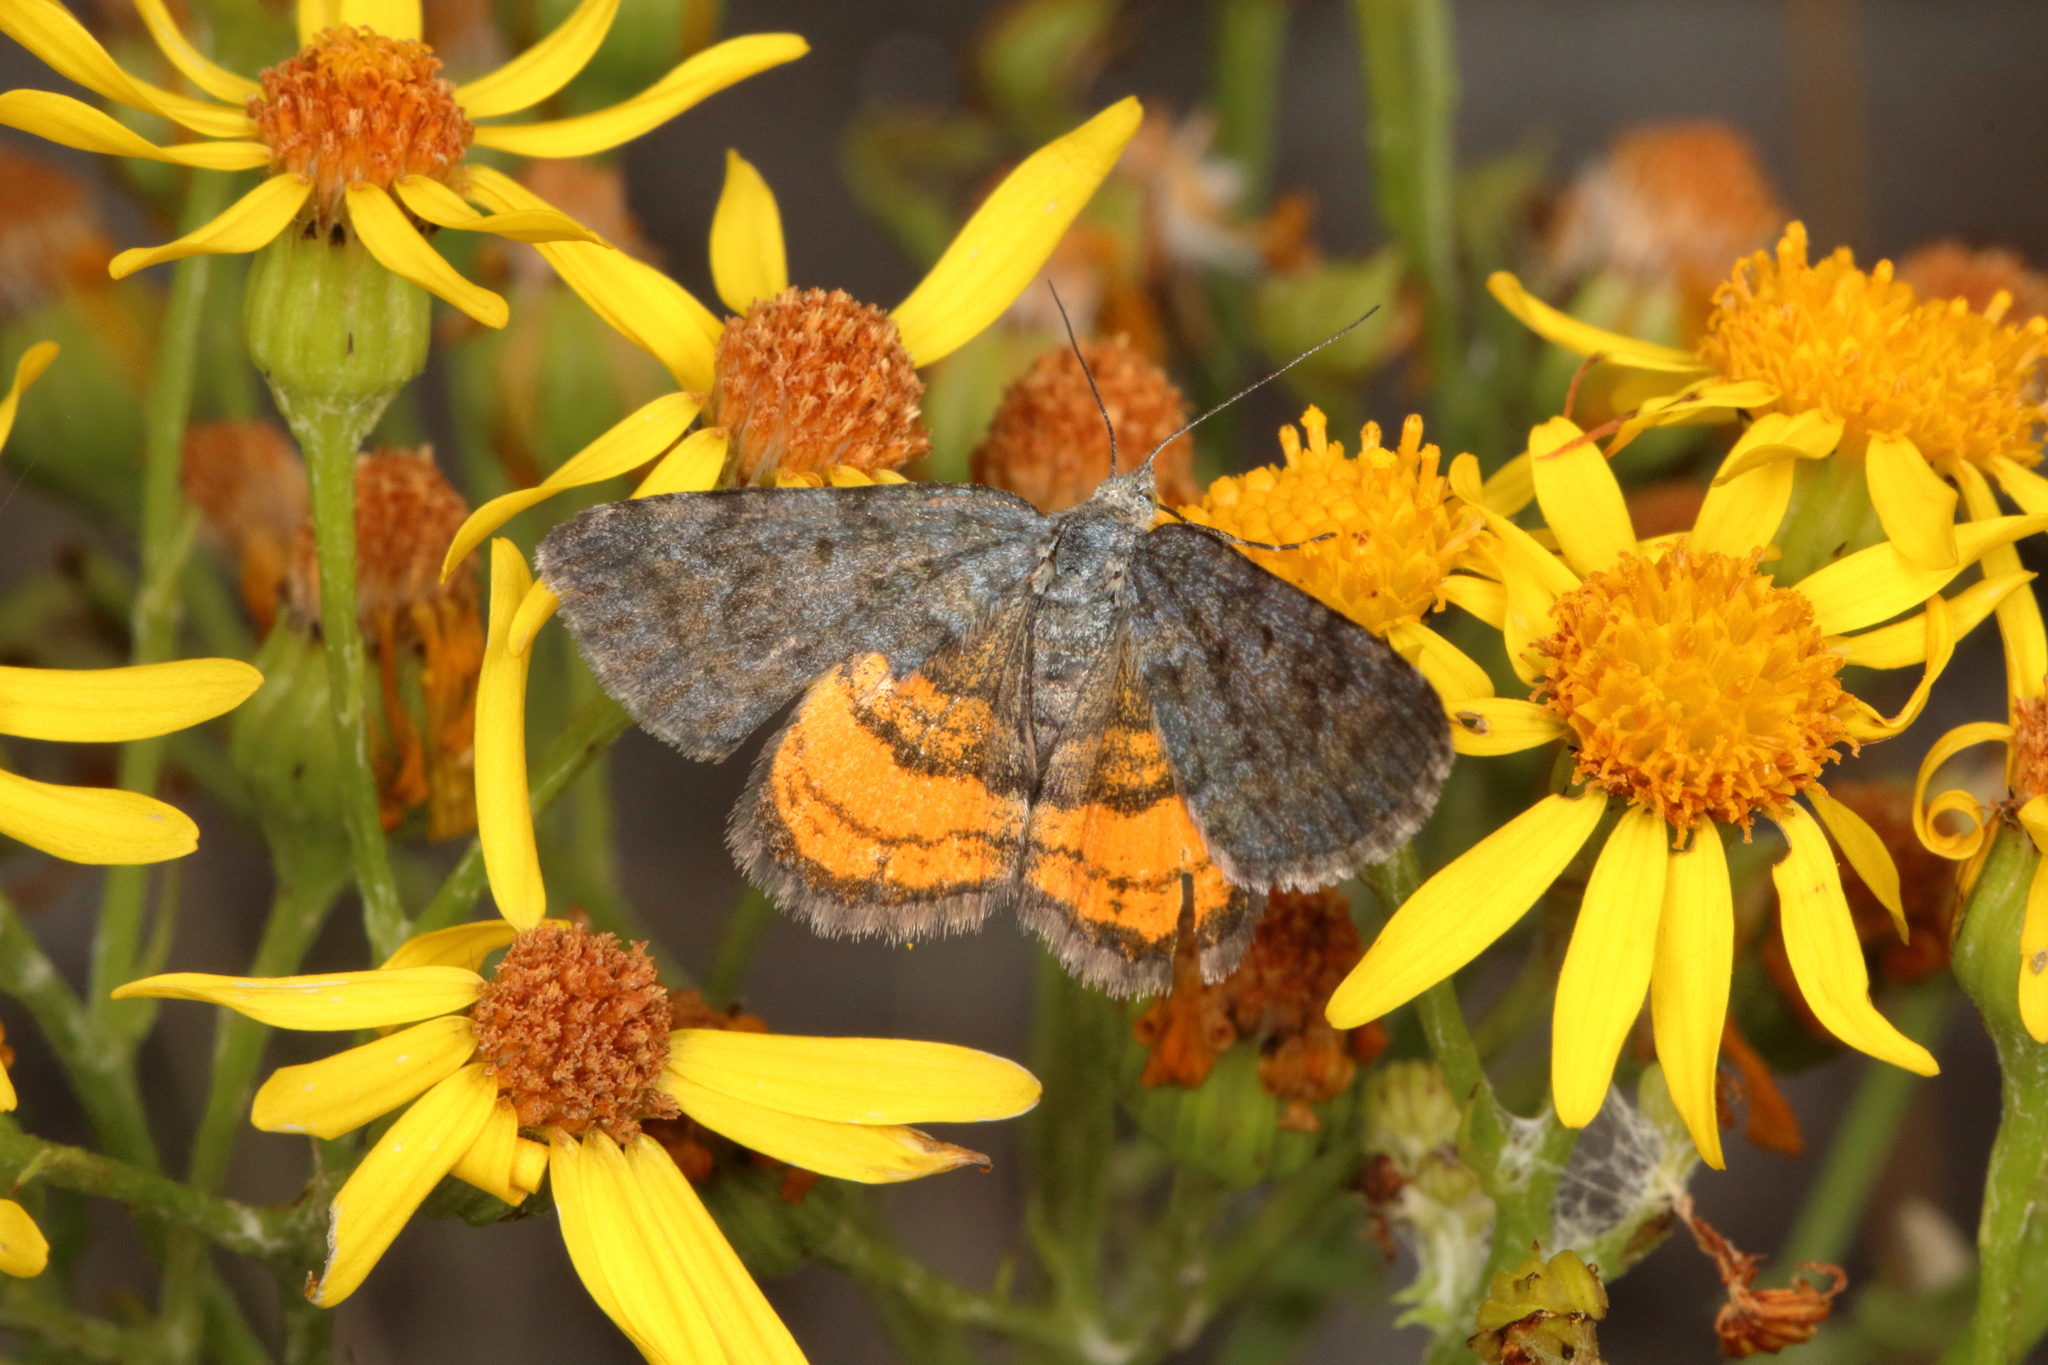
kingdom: Animalia
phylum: Arthropoda
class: Insecta
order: Lepidoptera
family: Geometridae
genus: Paranotoreas
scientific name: Paranotoreas brephosata
